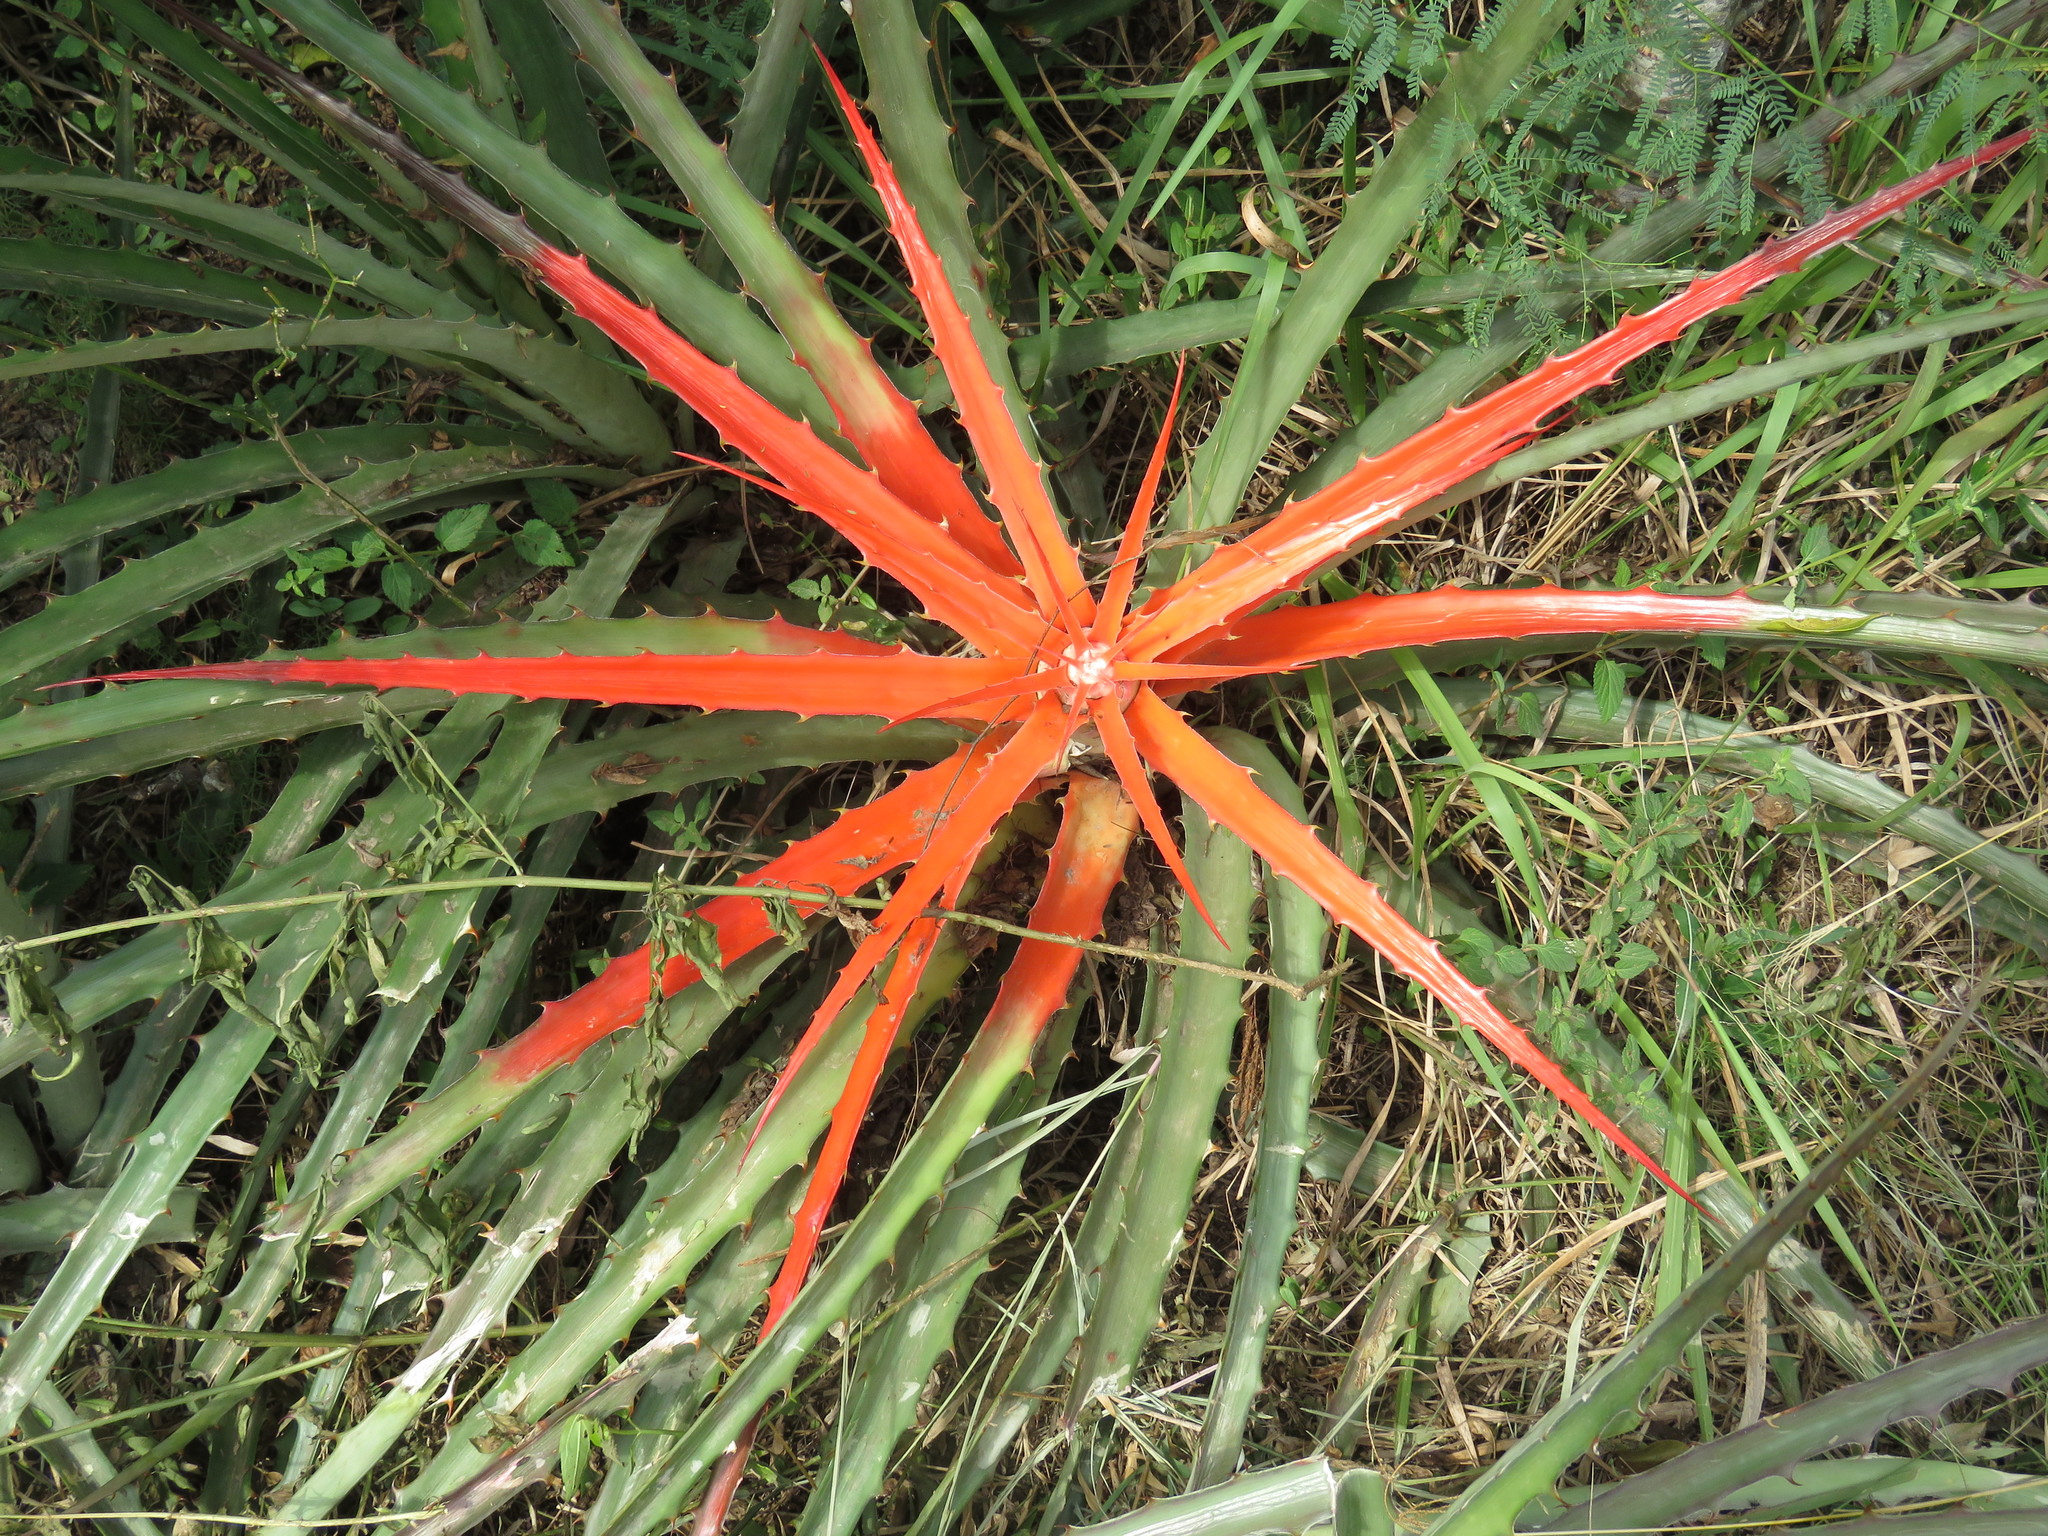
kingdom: Plantae
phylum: Tracheophyta
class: Liliopsida
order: Poales
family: Bromeliaceae
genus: Bromelia
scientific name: Bromelia serra
